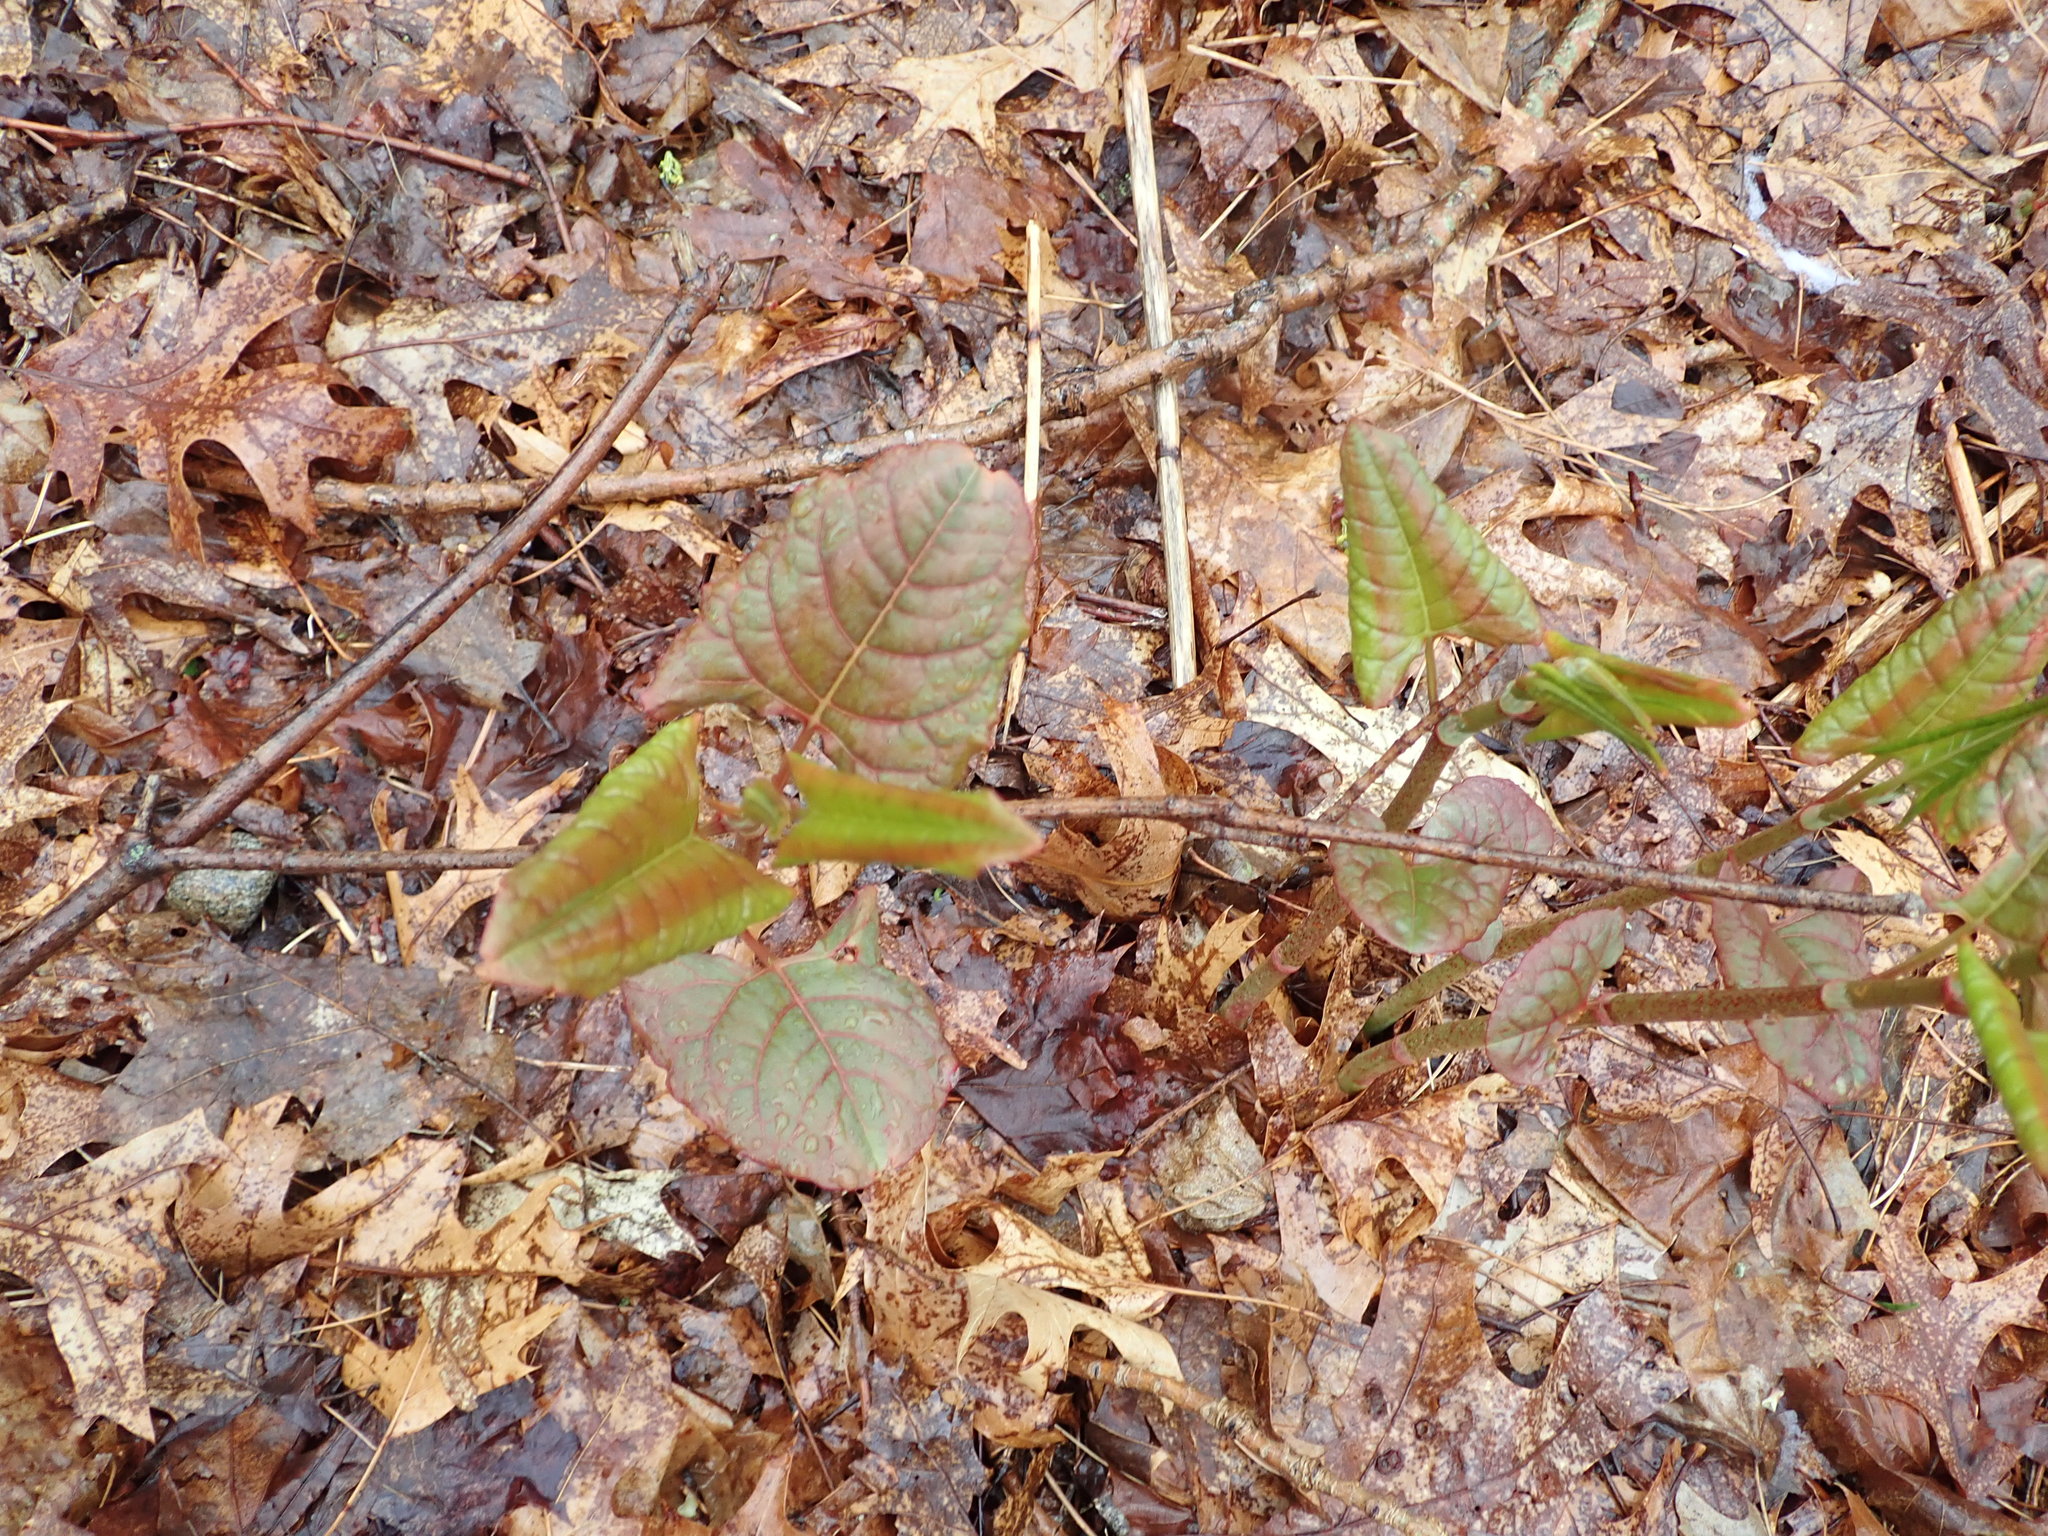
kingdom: Plantae
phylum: Tracheophyta
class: Magnoliopsida
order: Caryophyllales
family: Polygonaceae
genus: Reynoutria
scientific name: Reynoutria japonica
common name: Japanese knotweed
